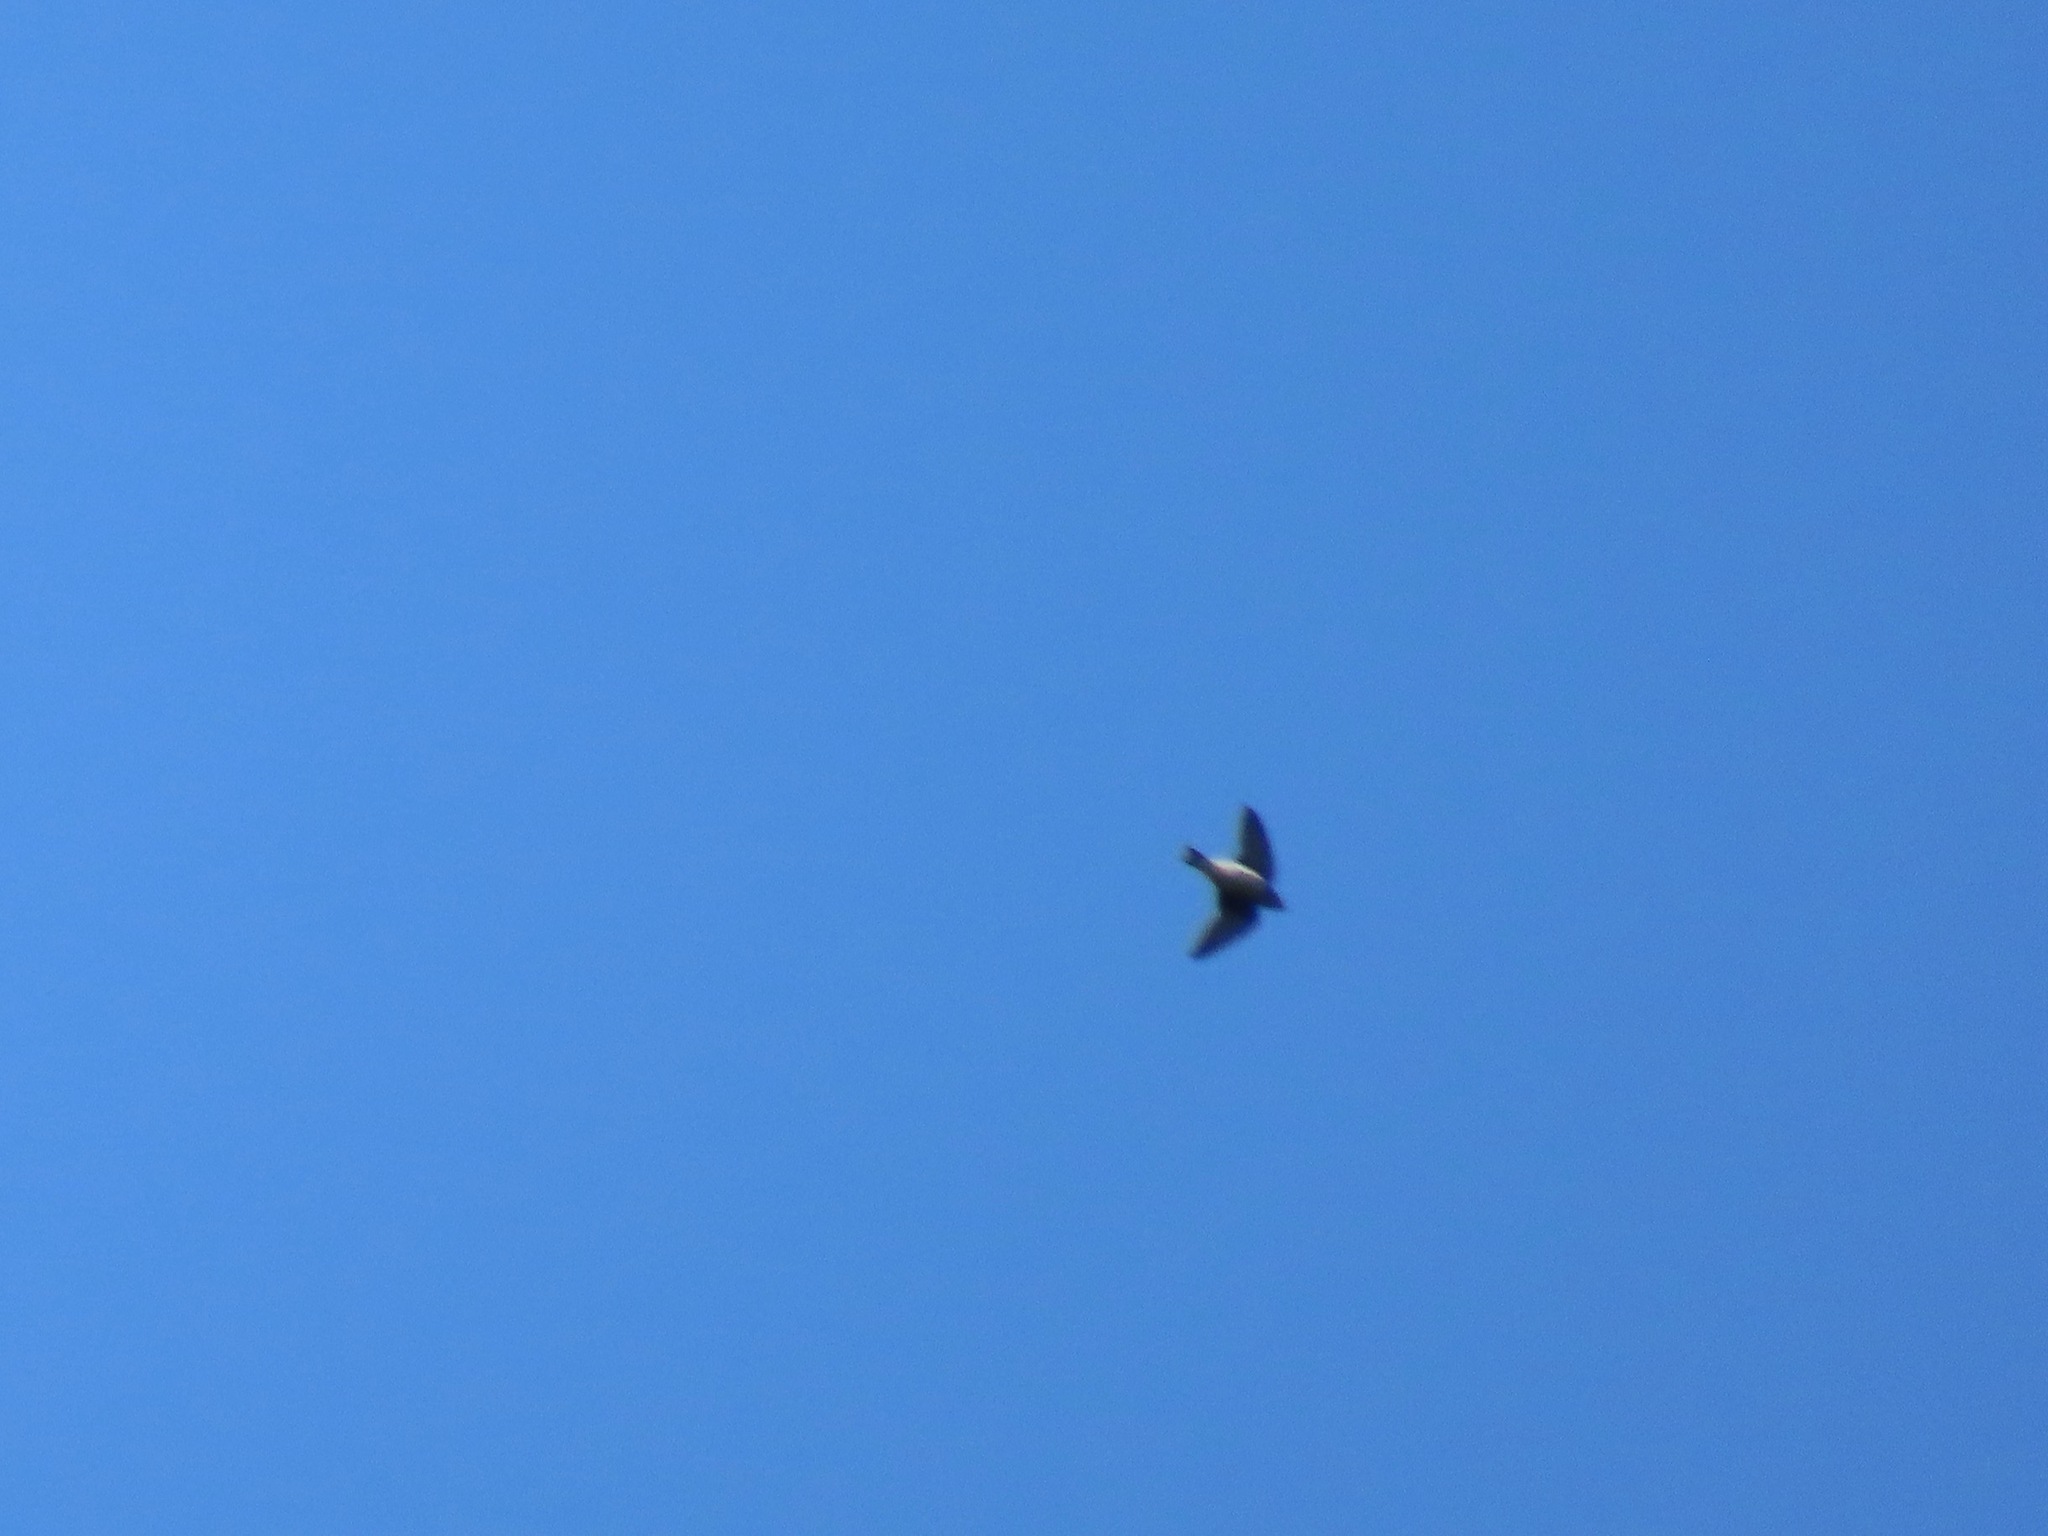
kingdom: Animalia
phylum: Chordata
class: Aves
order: Passeriformes
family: Hirundinidae
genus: Progne
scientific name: Progne subis
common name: Purple martin
